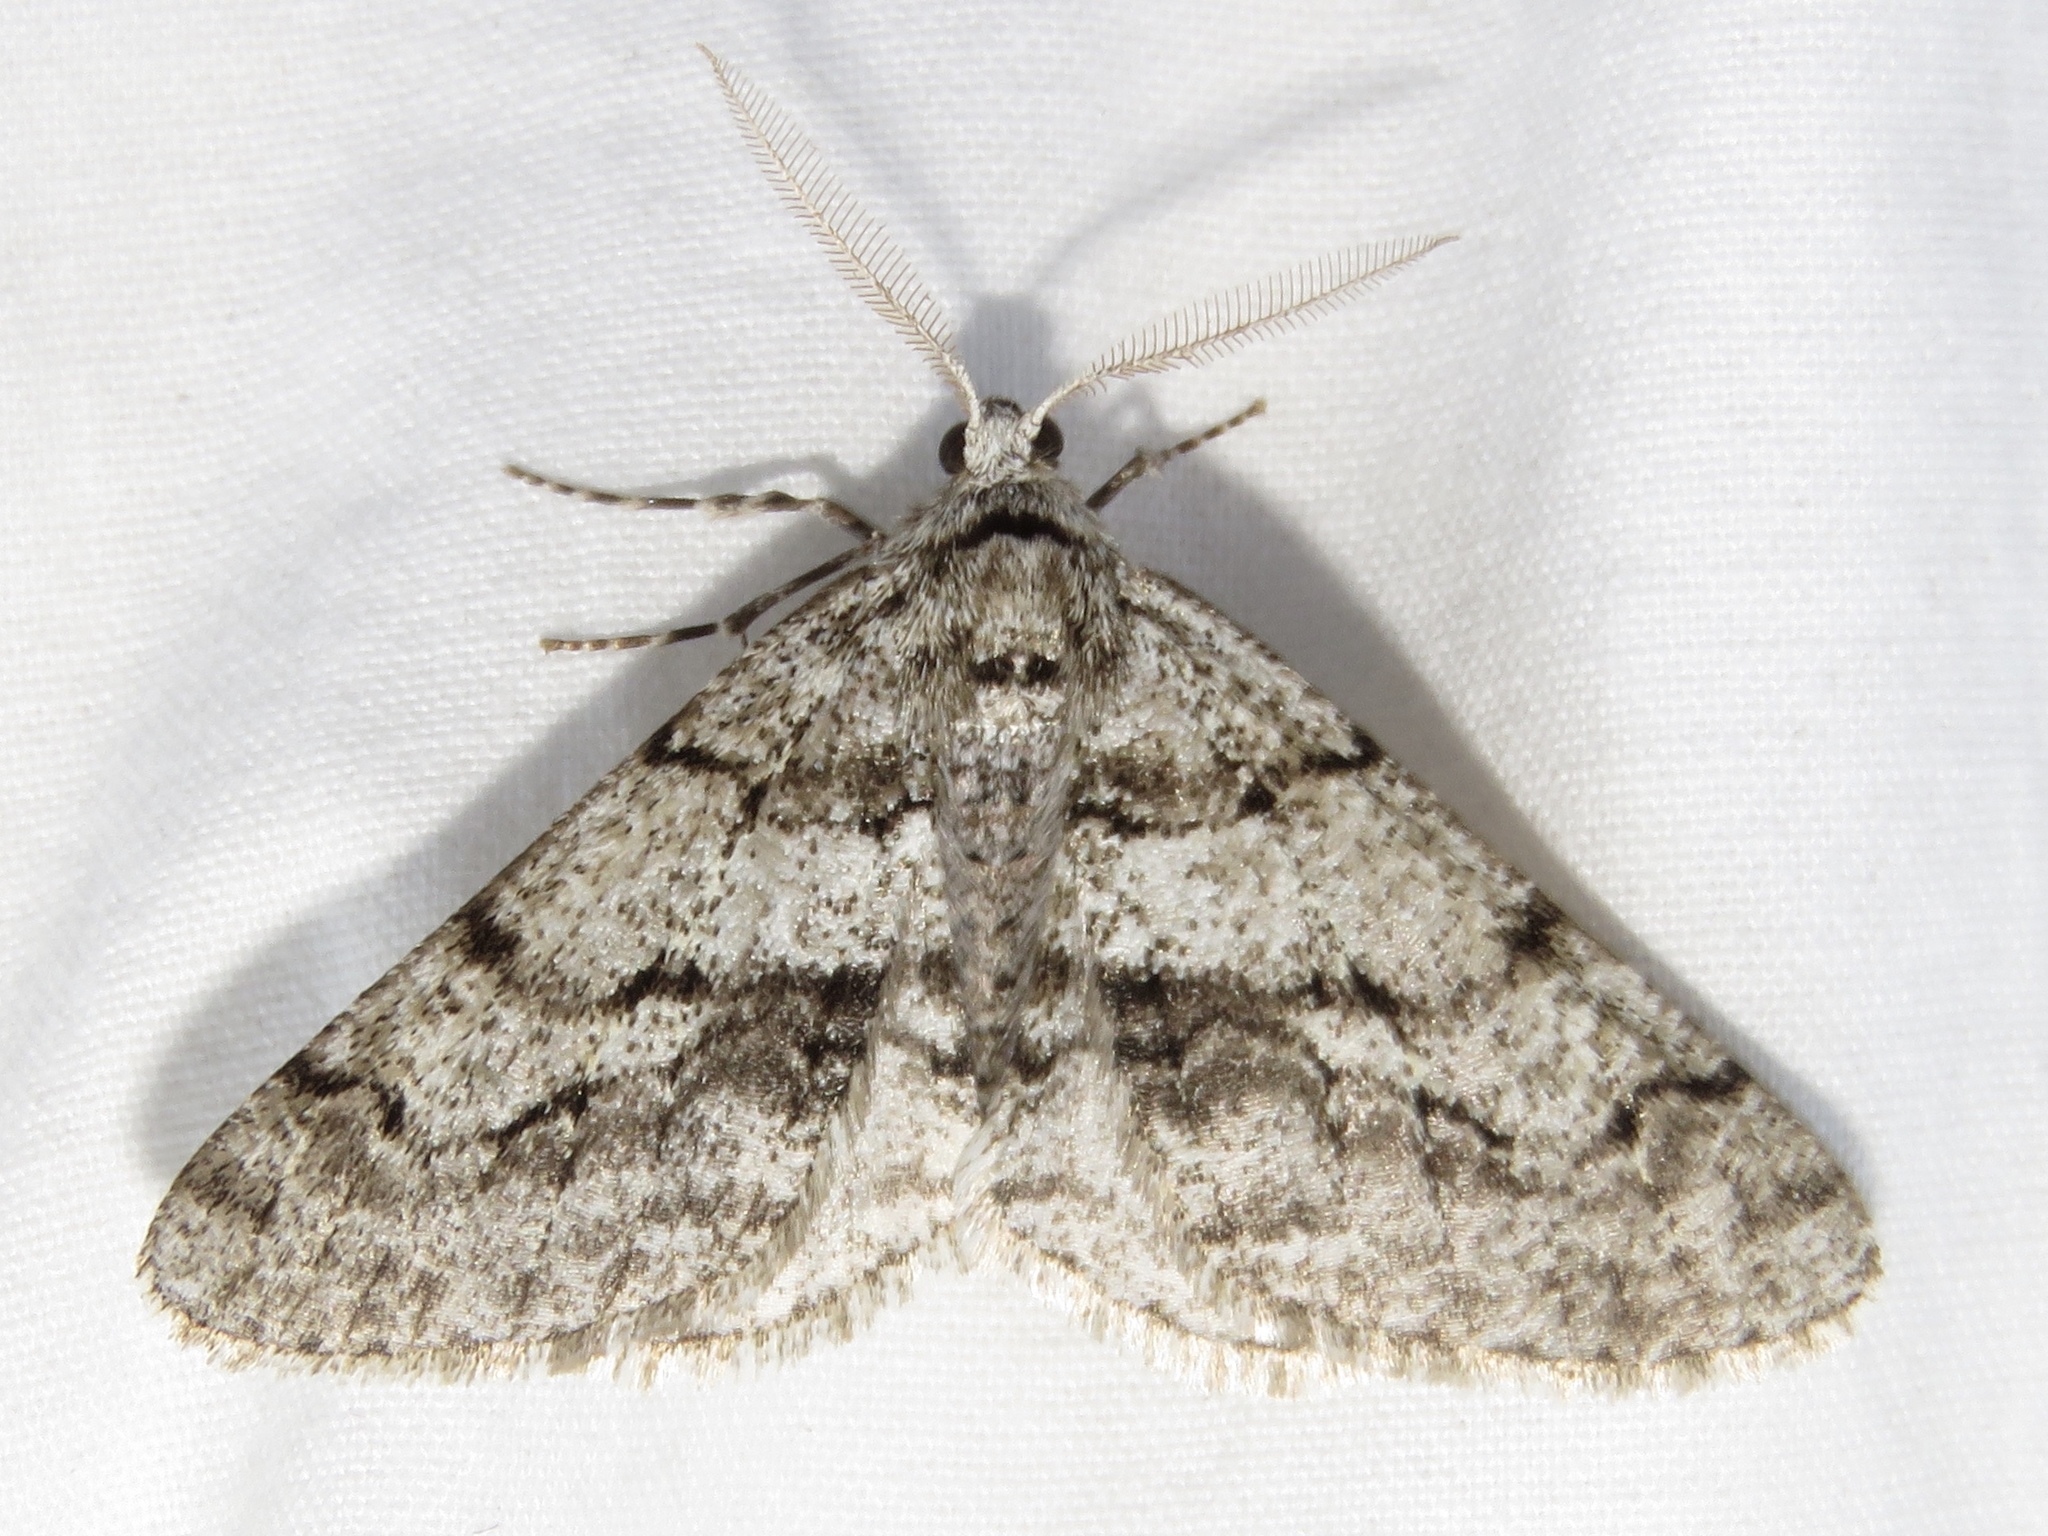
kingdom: Animalia
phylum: Arthropoda
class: Insecta
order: Lepidoptera
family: Geometridae
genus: Phigalia
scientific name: Phigalia titea
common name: Spiny looper
